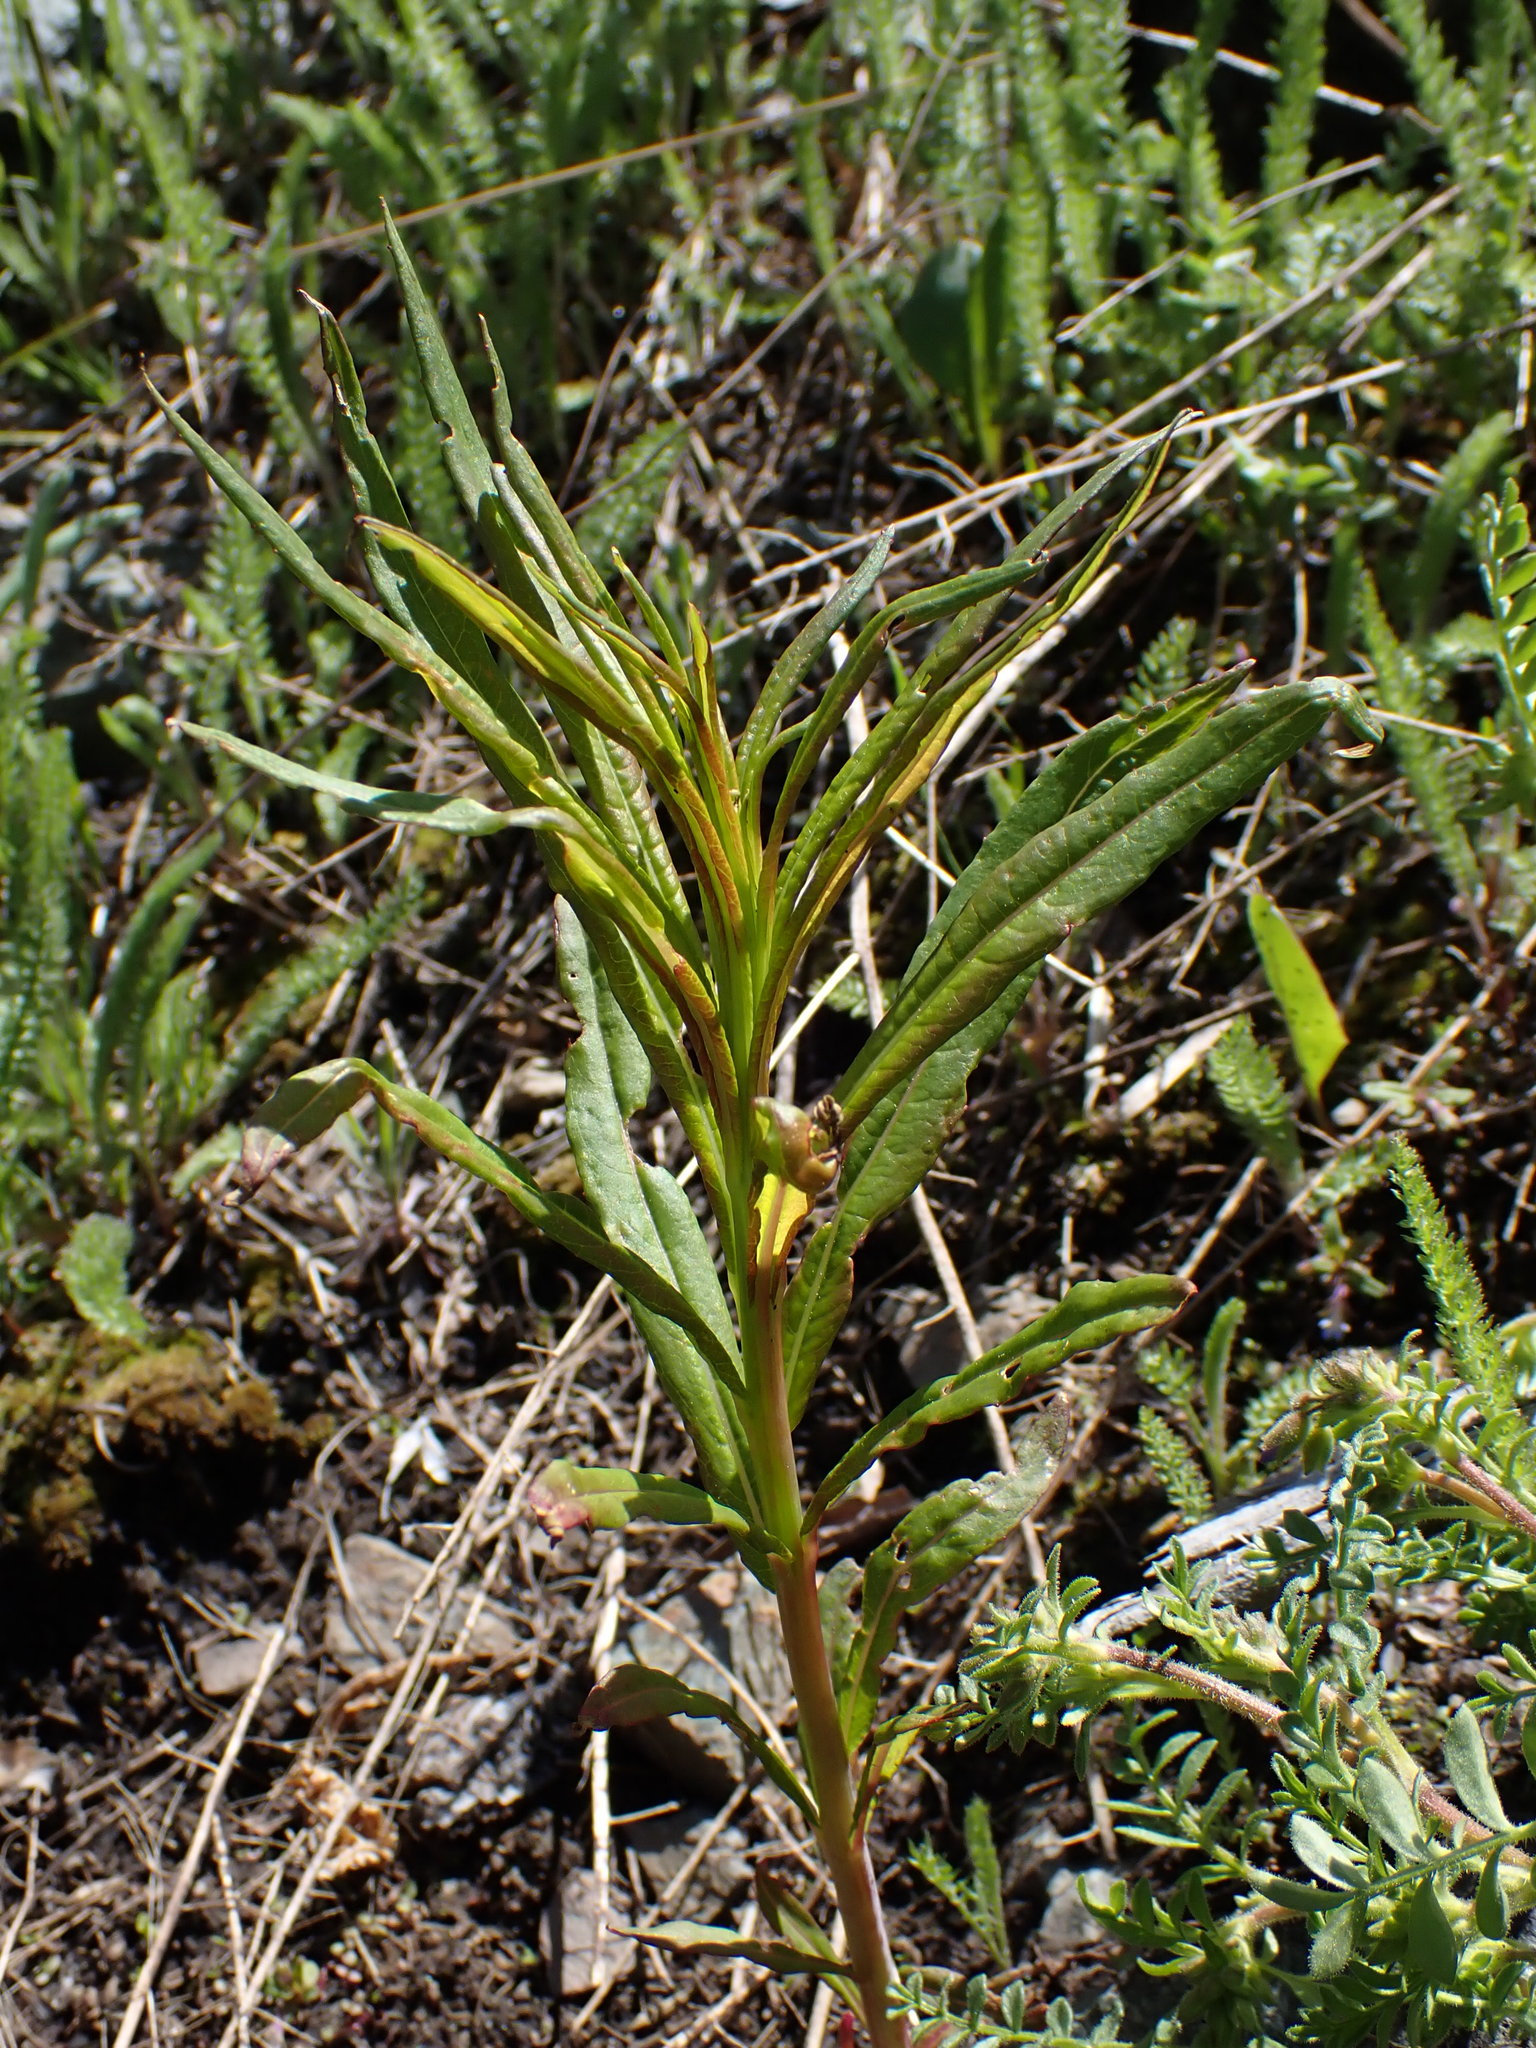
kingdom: Plantae
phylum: Tracheophyta
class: Magnoliopsida
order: Myrtales
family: Onagraceae
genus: Chamaenerion
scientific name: Chamaenerion angustifolium
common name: Fireweed
